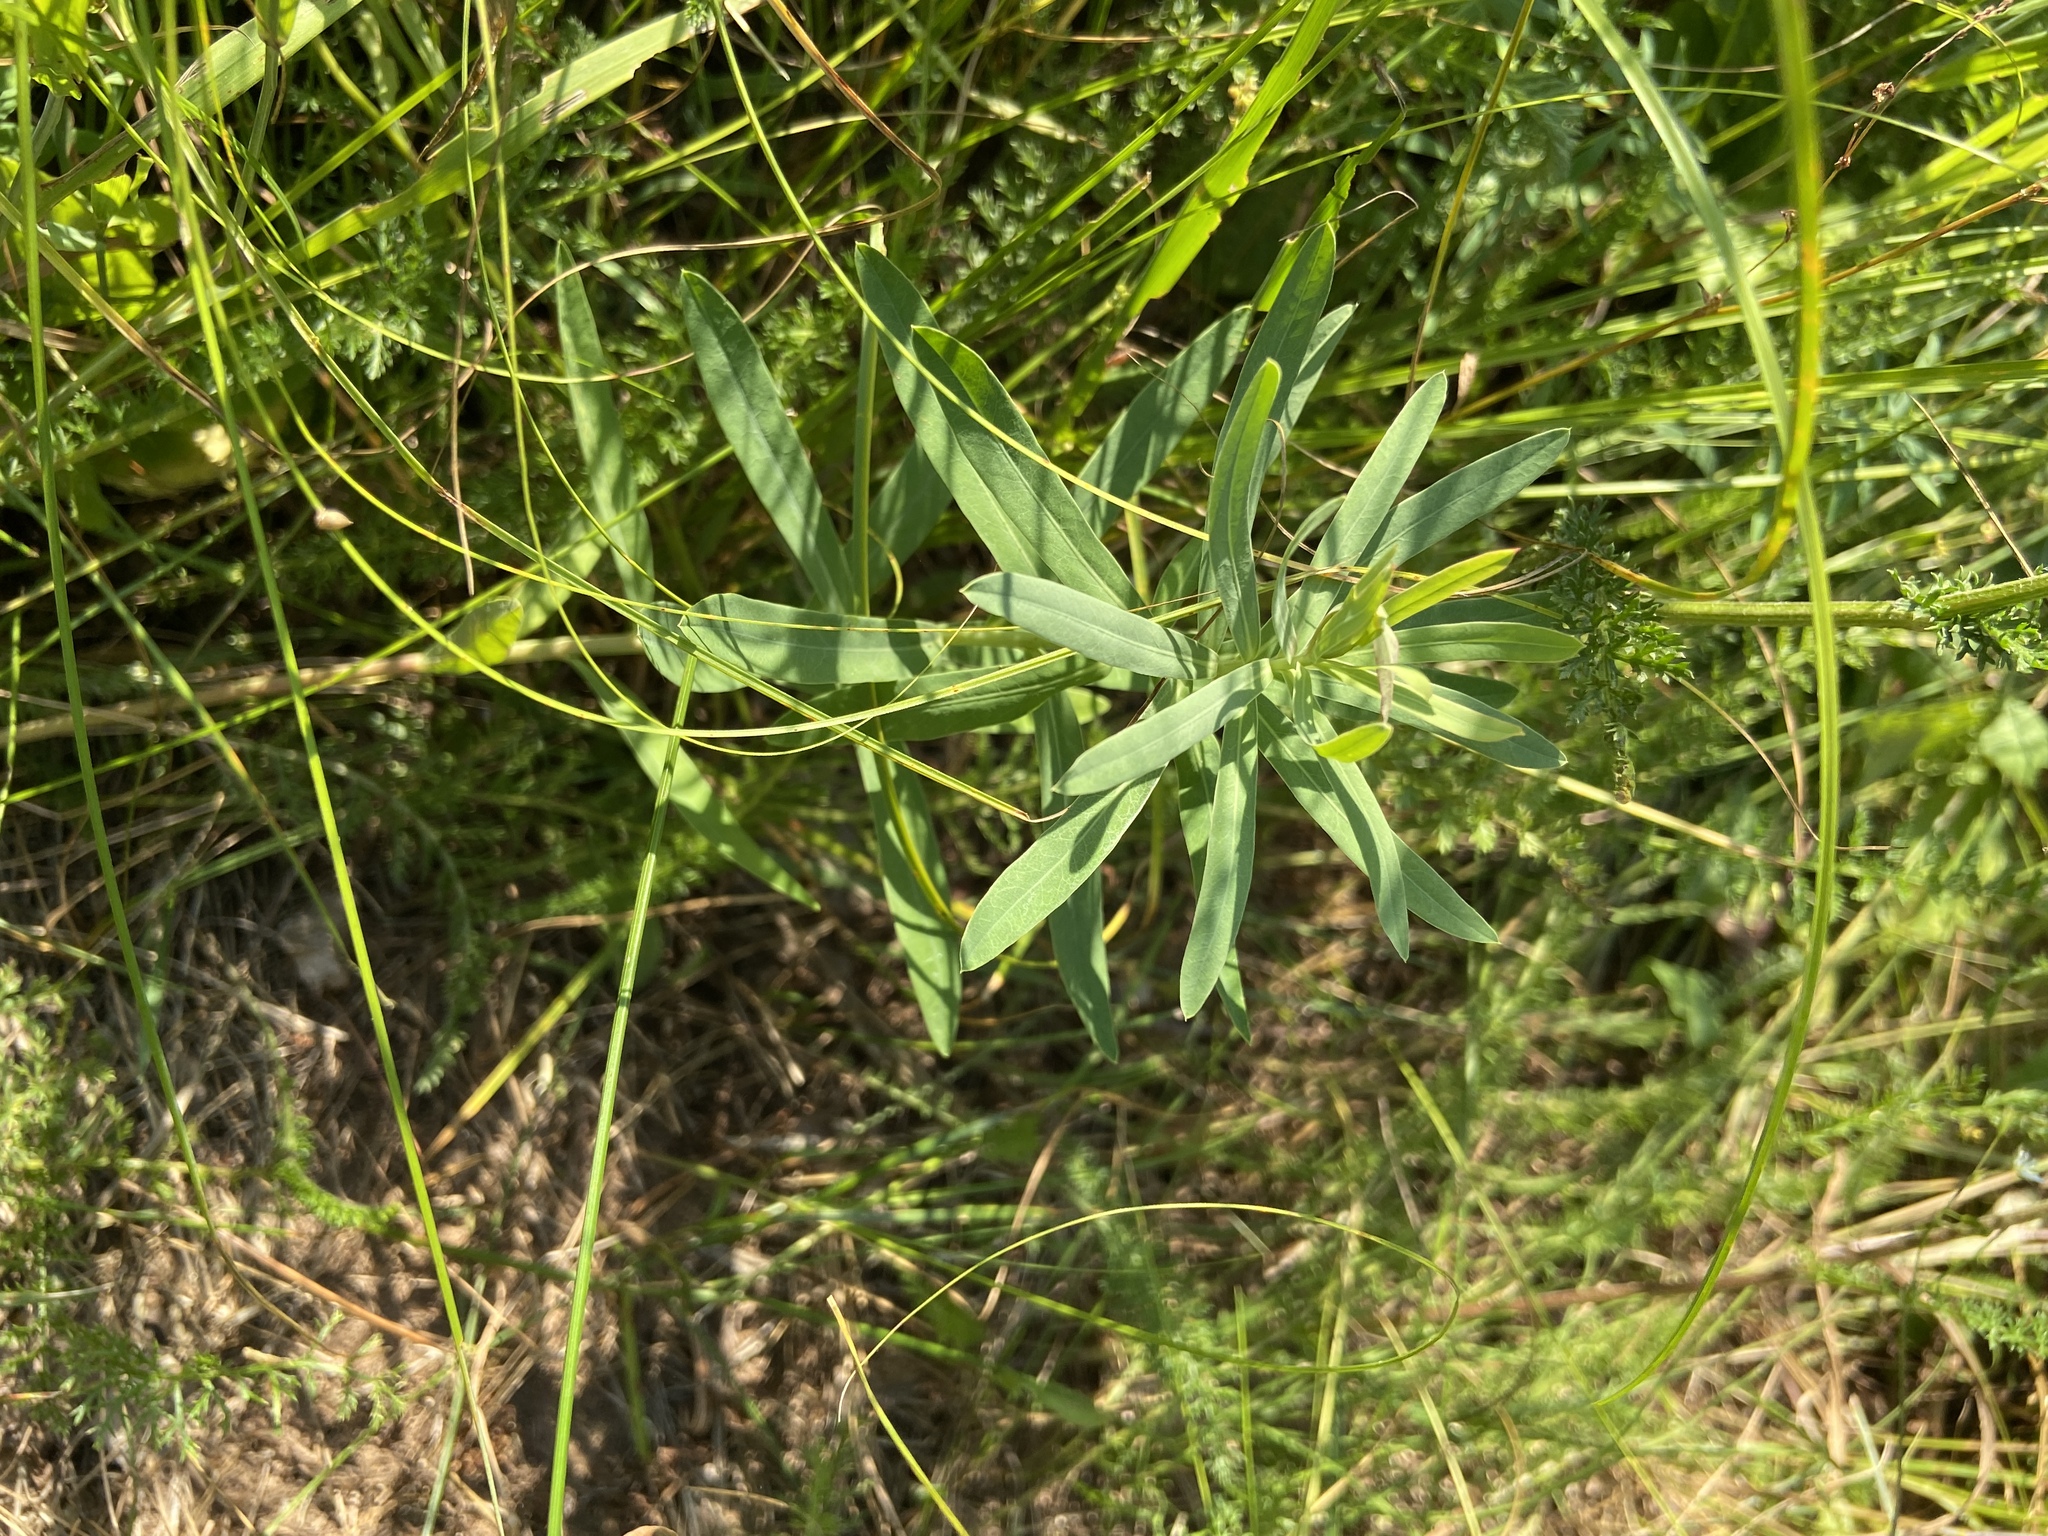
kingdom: Plantae
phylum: Tracheophyta
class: Magnoliopsida
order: Malpighiales
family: Euphorbiaceae
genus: Euphorbia
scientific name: Euphorbia virgata
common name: Leafy spurge
